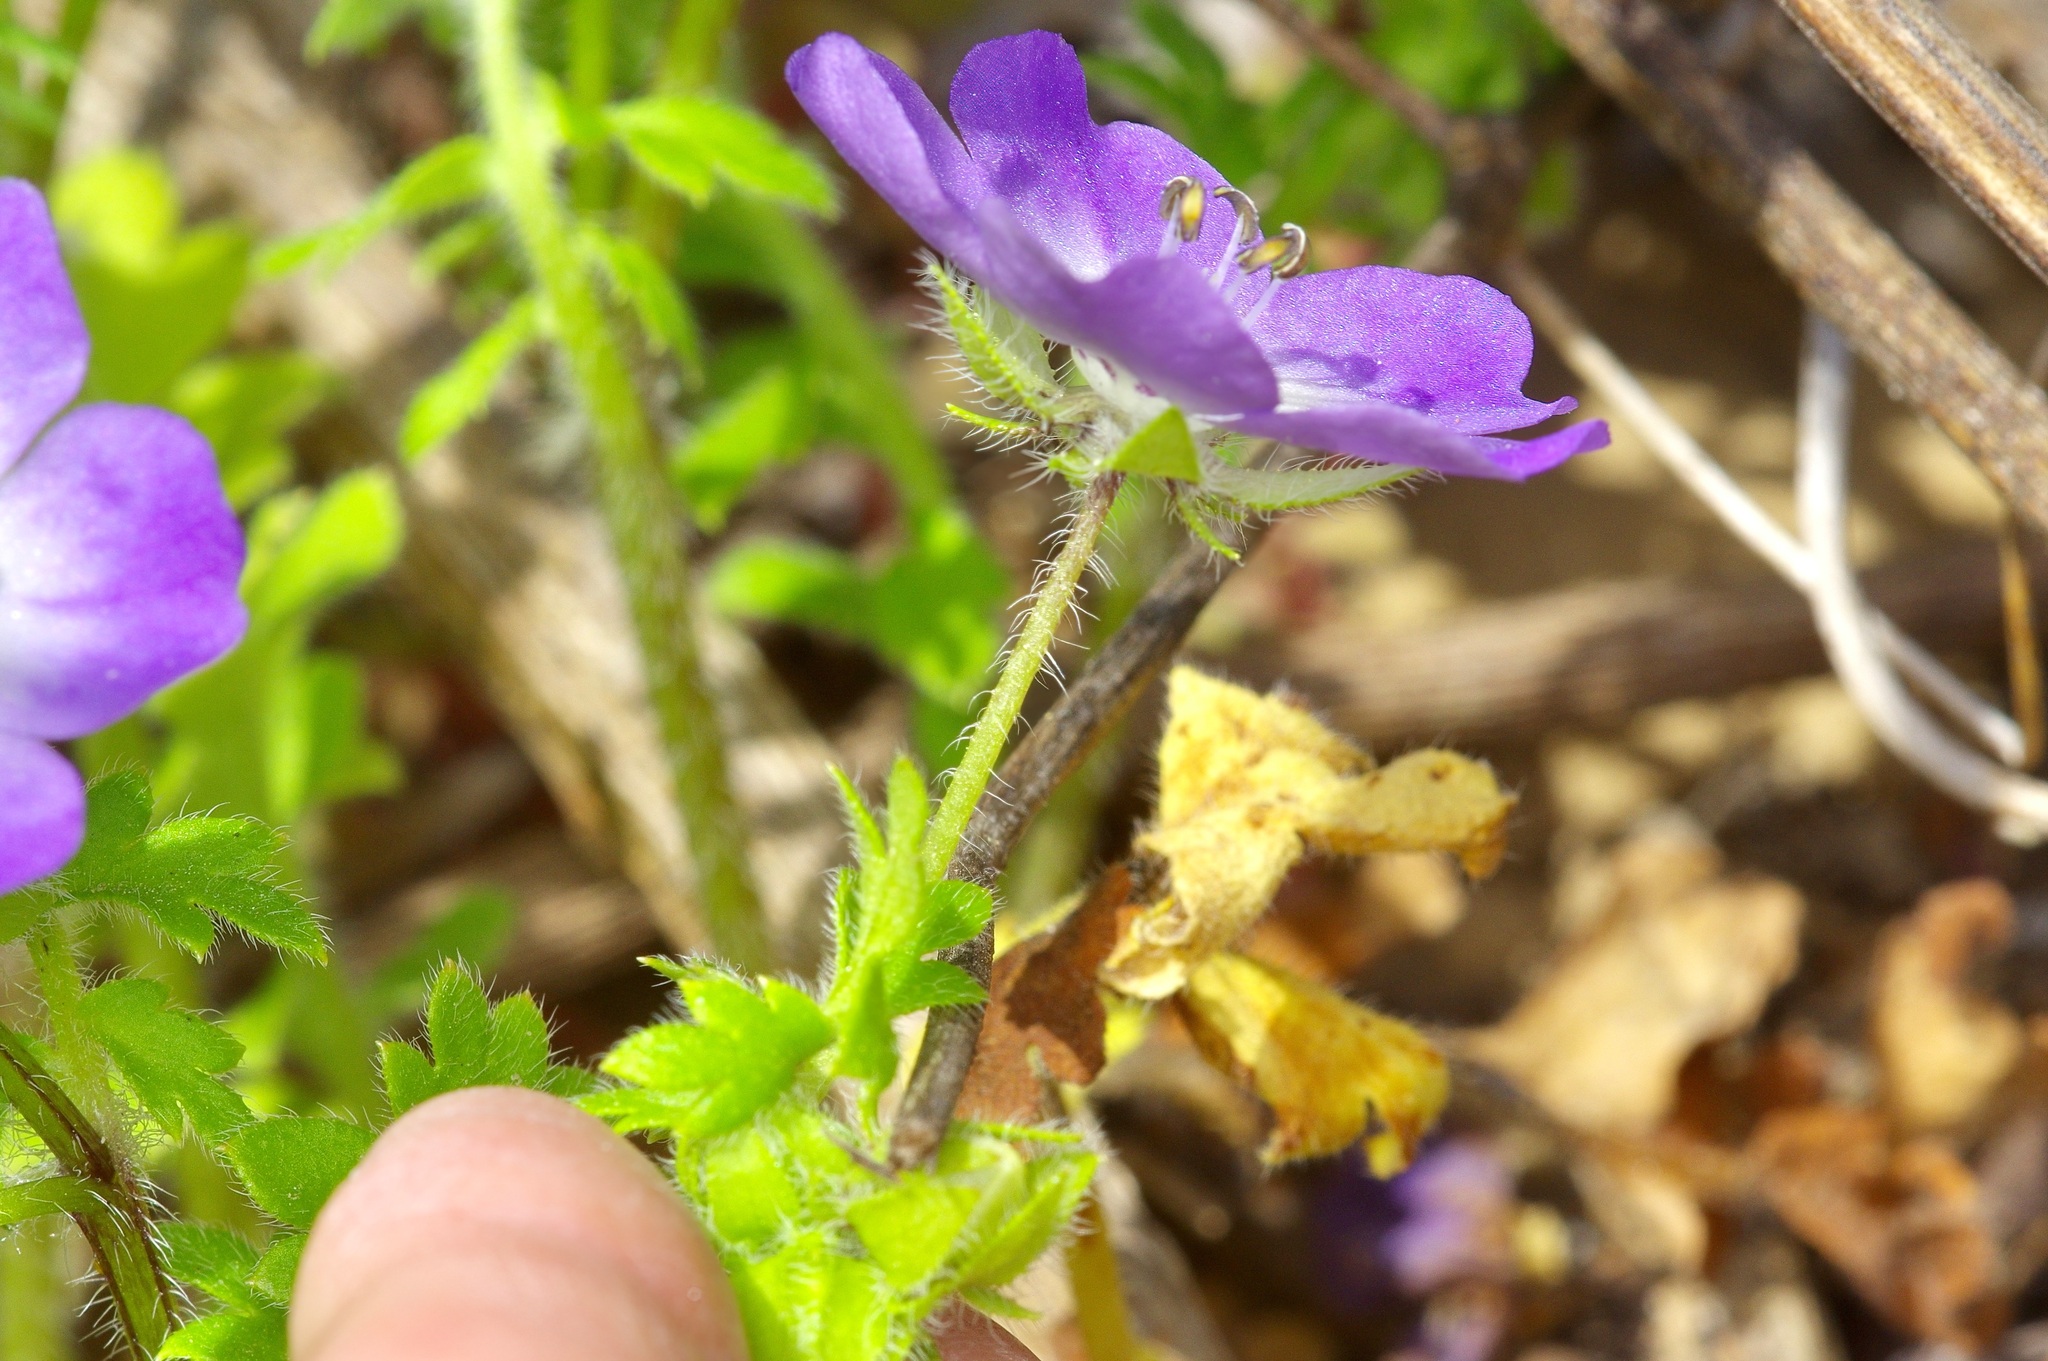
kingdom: Plantae
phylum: Tracheophyta
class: Magnoliopsida
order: Boraginales
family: Hydrophyllaceae
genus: Nemophila
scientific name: Nemophila sayersensis
